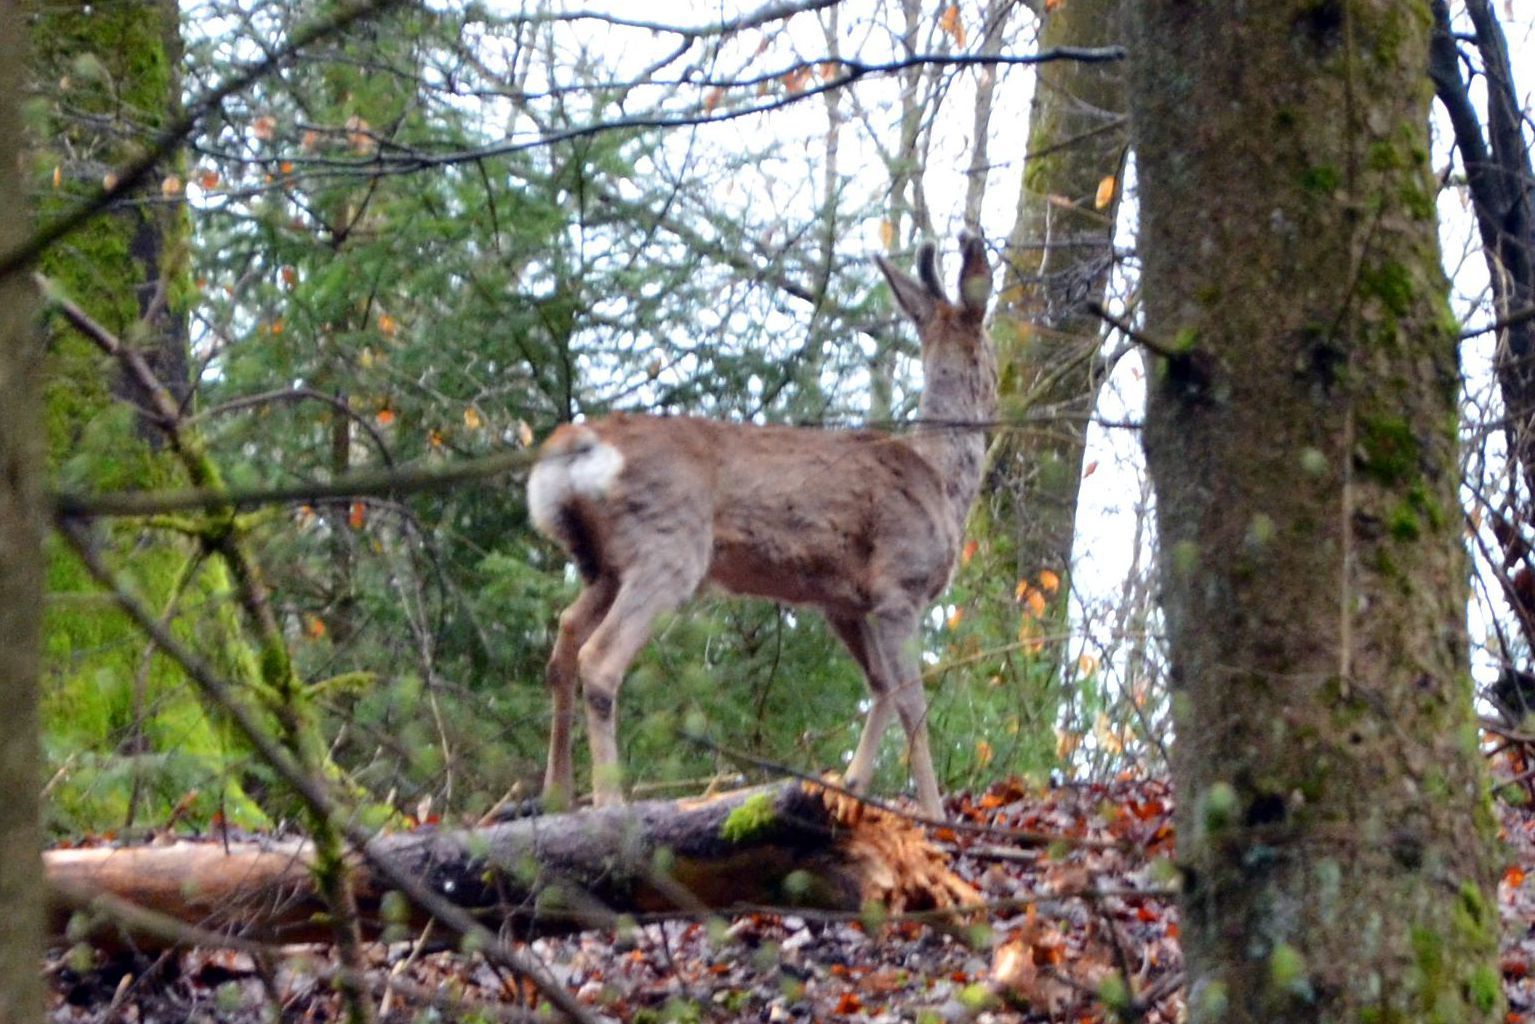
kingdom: Animalia
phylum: Chordata
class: Mammalia
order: Artiodactyla
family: Cervidae
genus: Capreolus
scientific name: Capreolus capreolus
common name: Western roe deer
